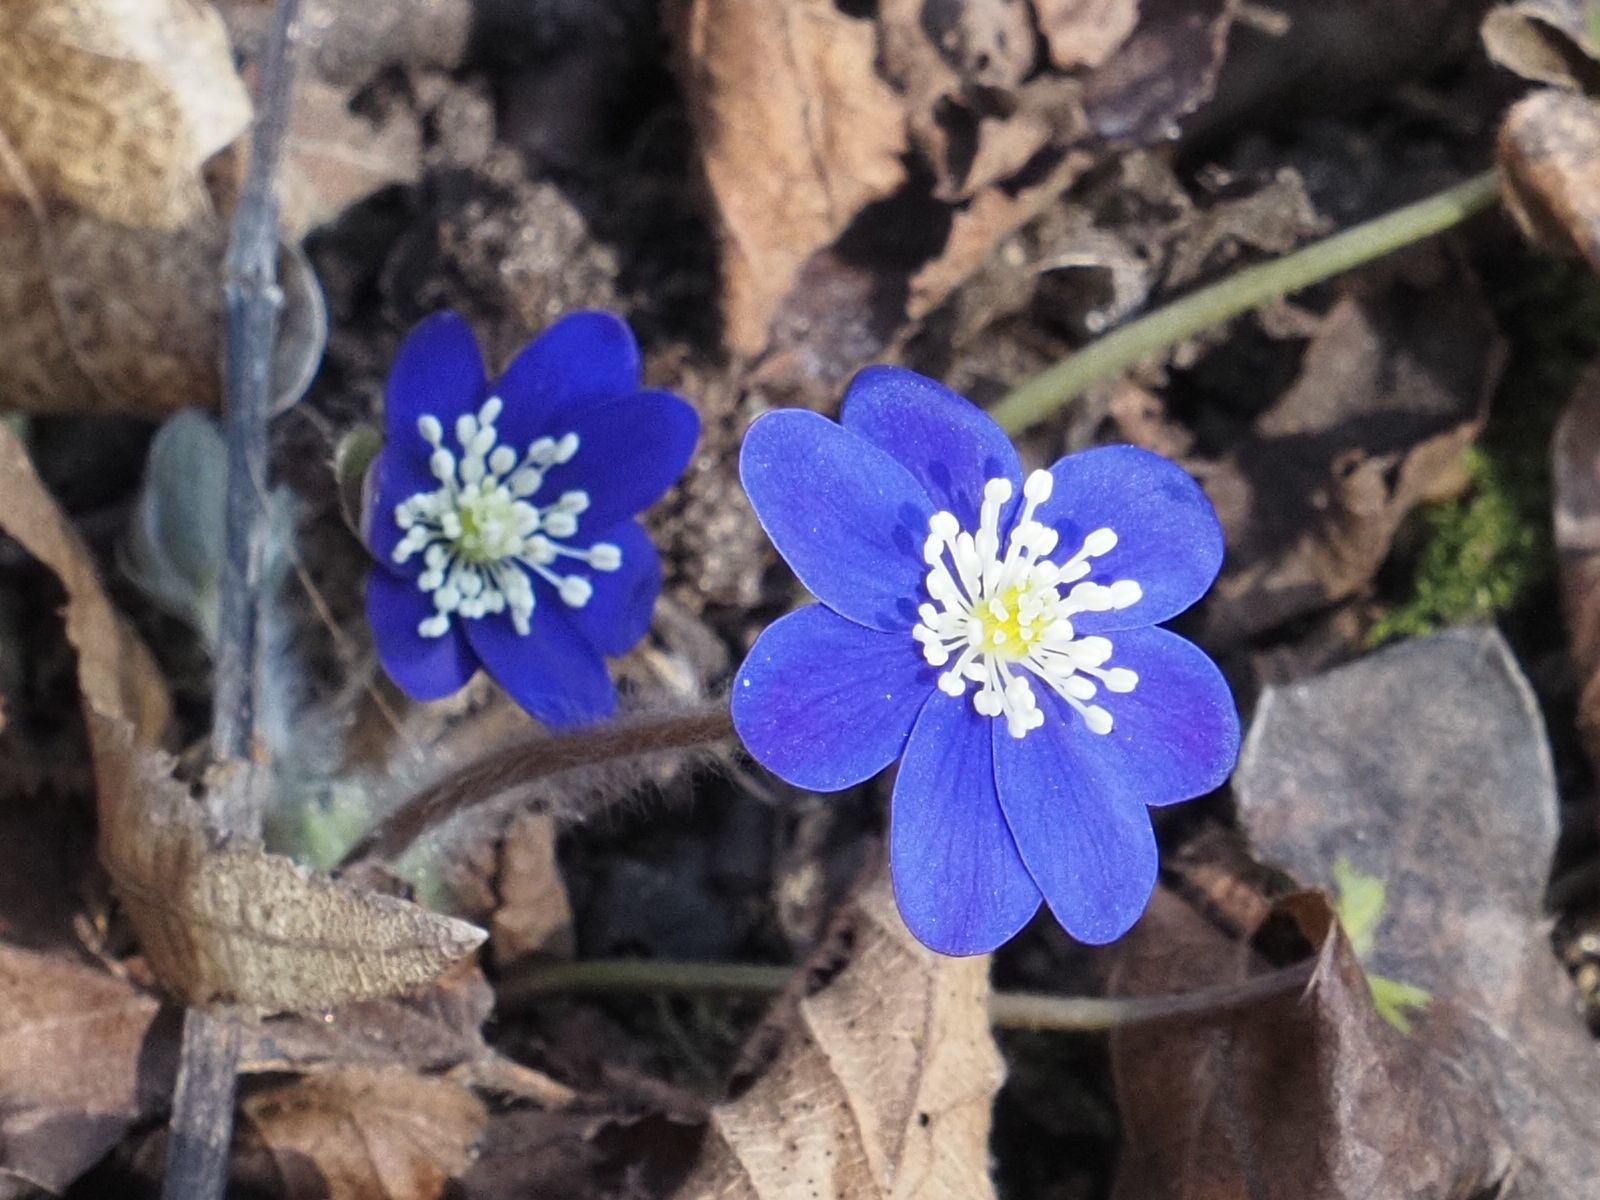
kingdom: Plantae
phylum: Tracheophyta
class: Magnoliopsida
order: Ranunculales
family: Ranunculaceae
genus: Hepatica
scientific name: Hepatica nobilis
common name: Liverleaf
